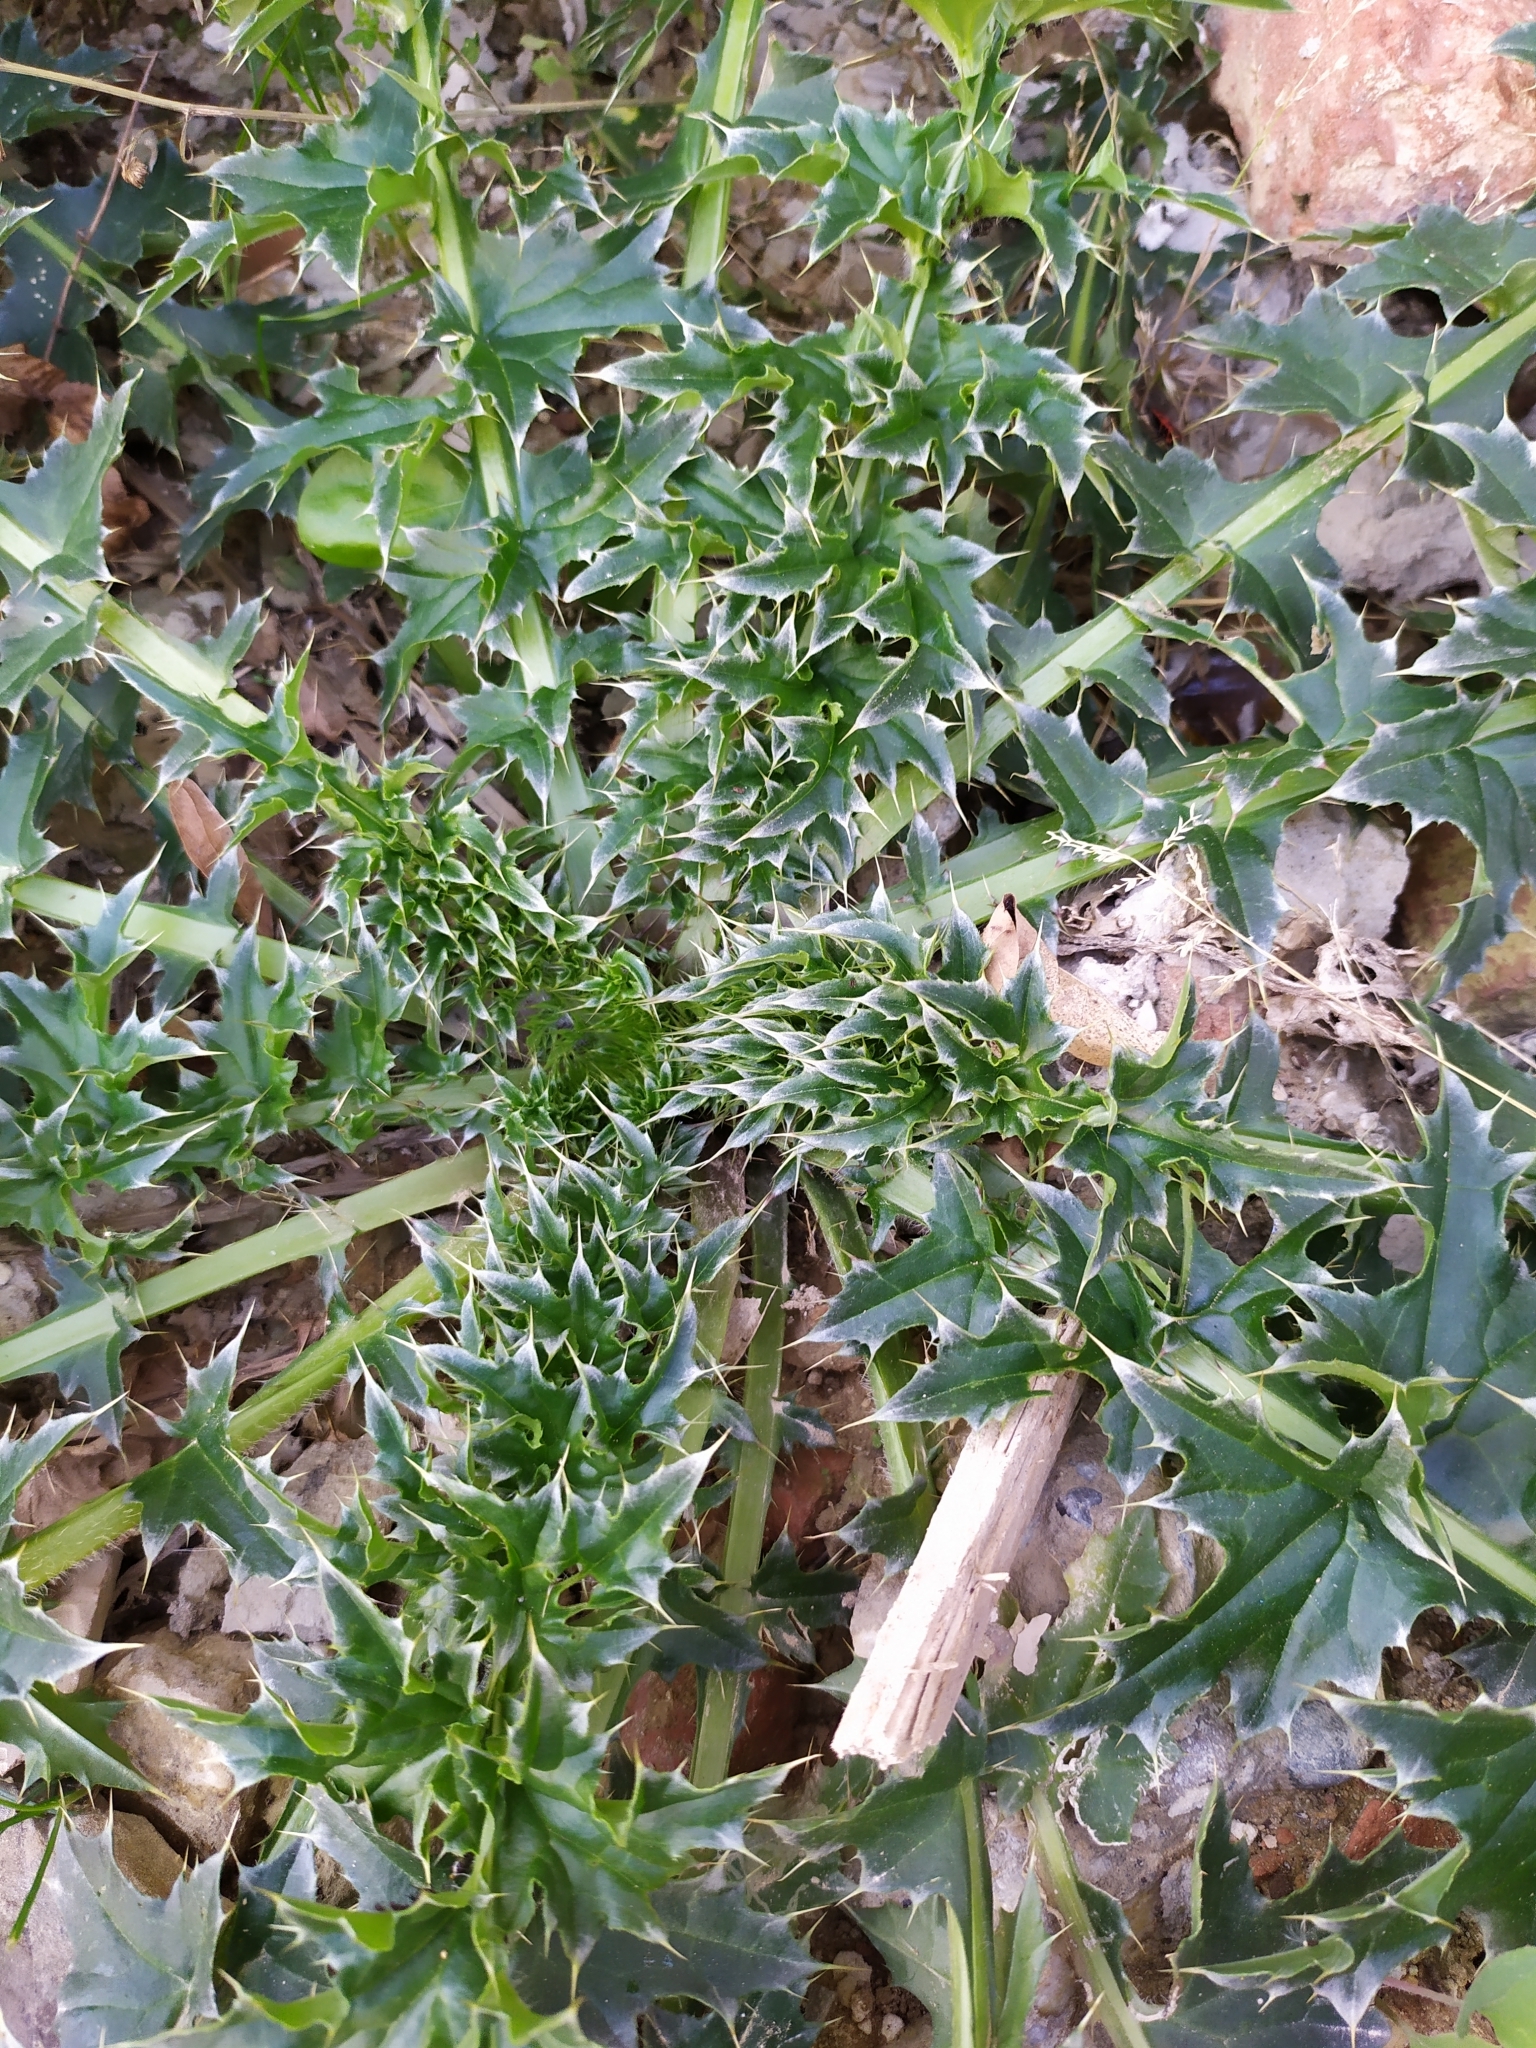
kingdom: Plantae
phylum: Tracheophyta
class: Magnoliopsida
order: Asterales
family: Asteraceae
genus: Carduus
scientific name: Carduus acanthoides
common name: Plumeless thistle
